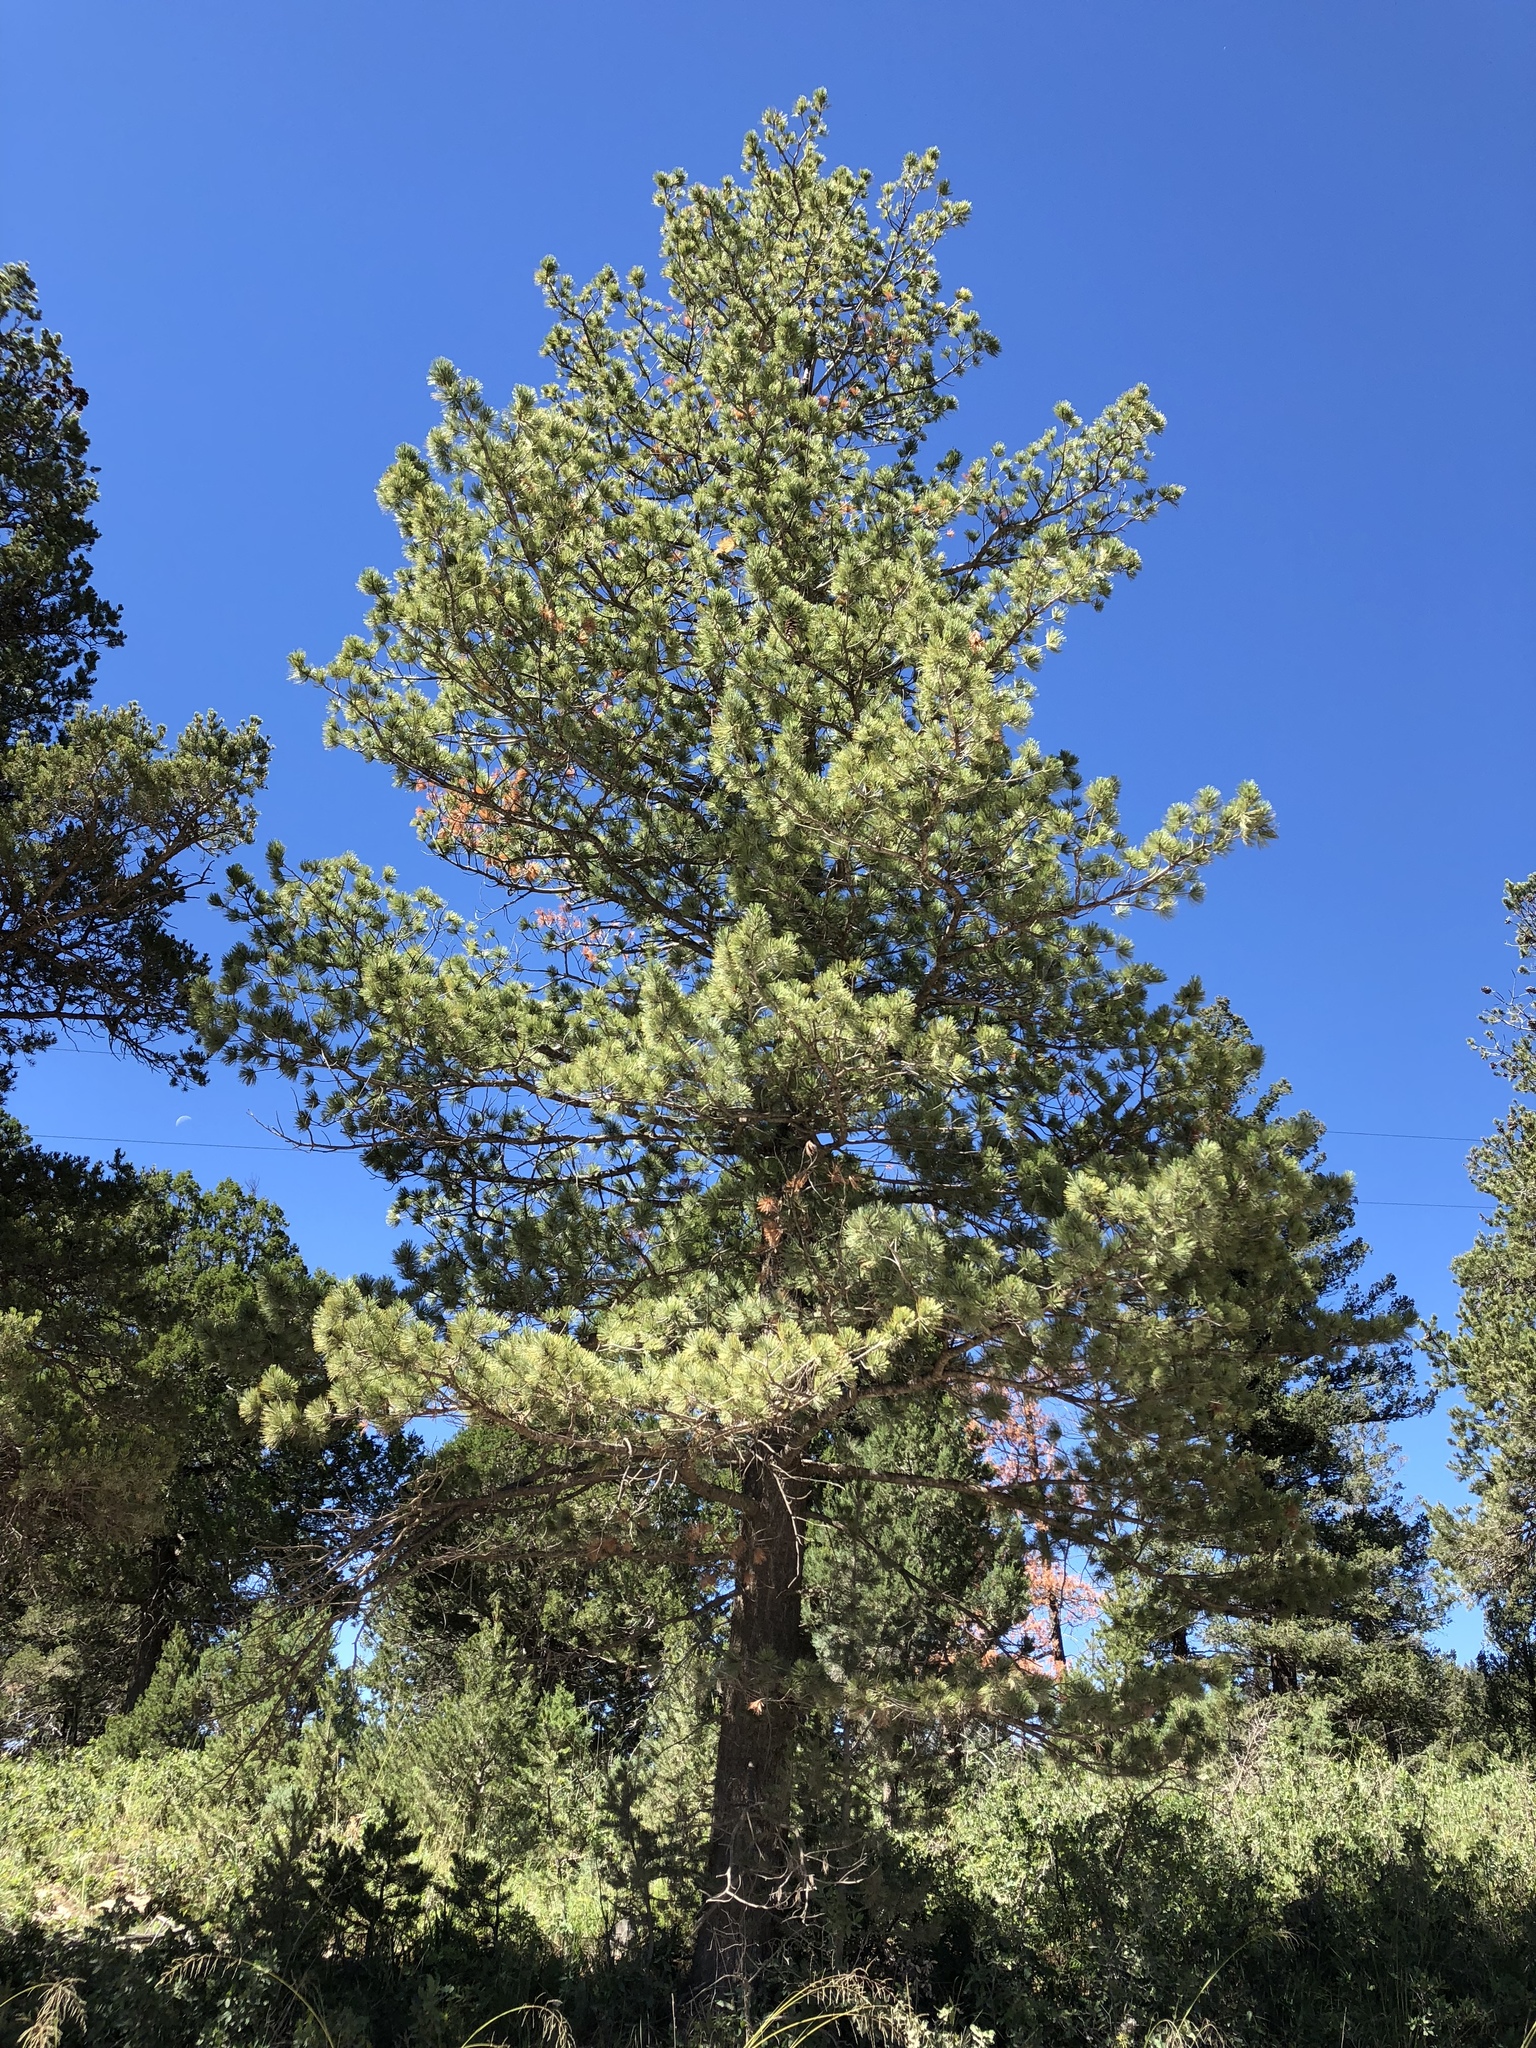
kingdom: Plantae
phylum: Tracheophyta
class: Pinopsida
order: Pinales
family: Pinaceae
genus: Pinus
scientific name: Pinus strobiformis
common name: Southwestern white pine
